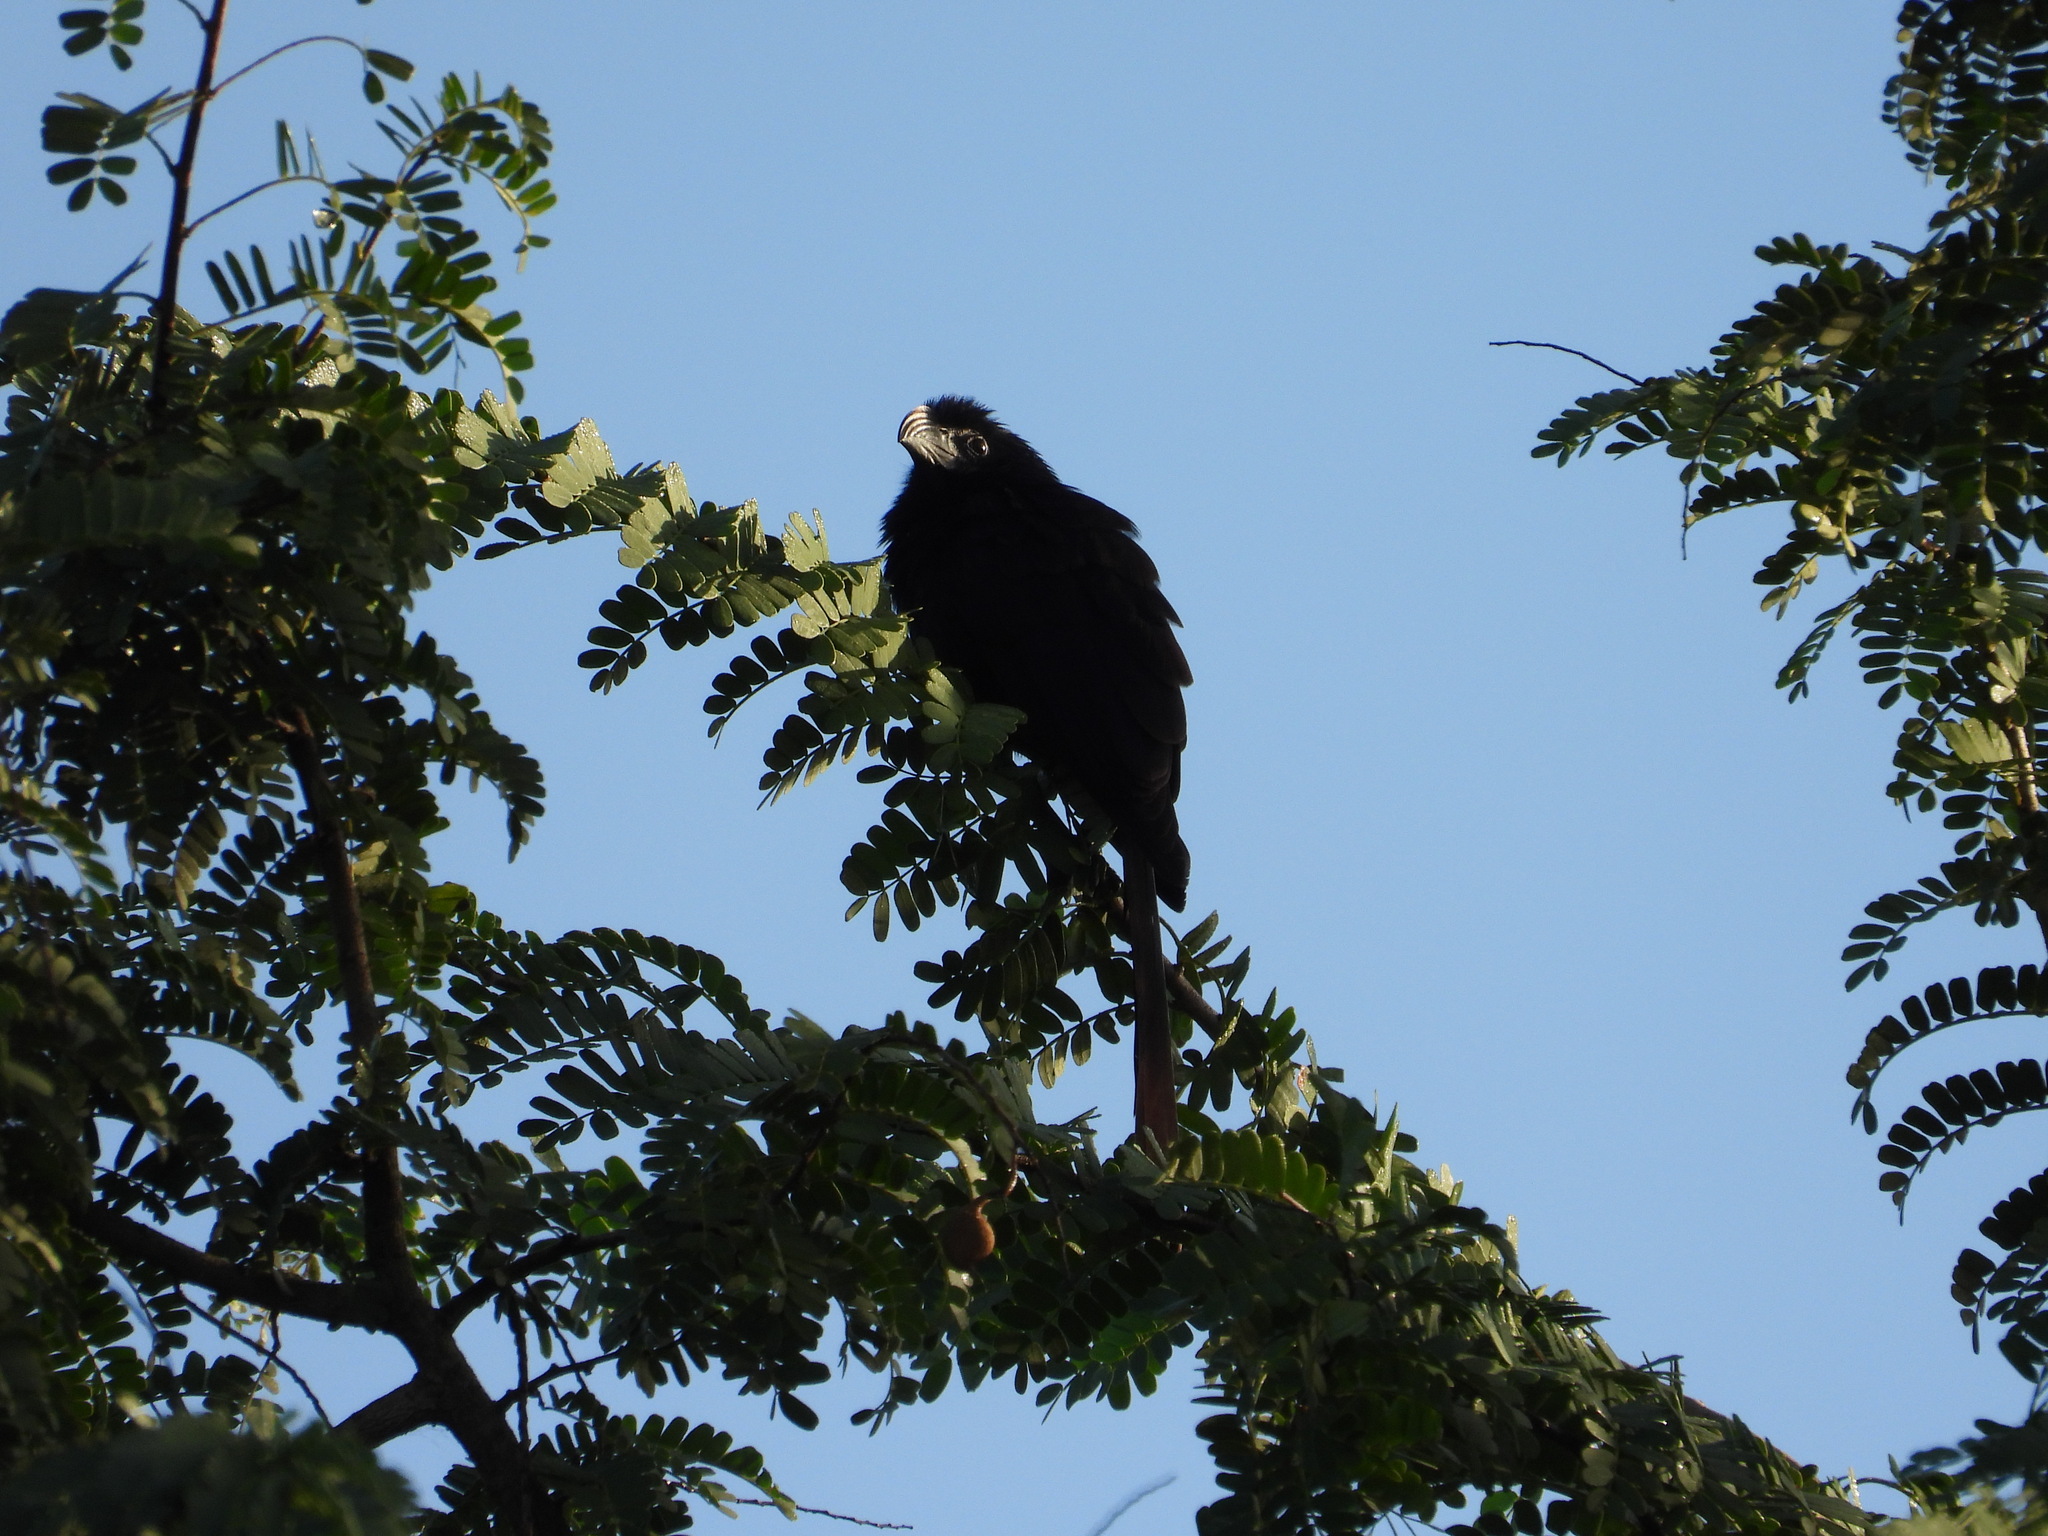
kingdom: Animalia
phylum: Chordata
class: Aves
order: Cuculiformes
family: Cuculidae
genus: Crotophaga
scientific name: Crotophaga sulcirostris
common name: Groove-billed ani
